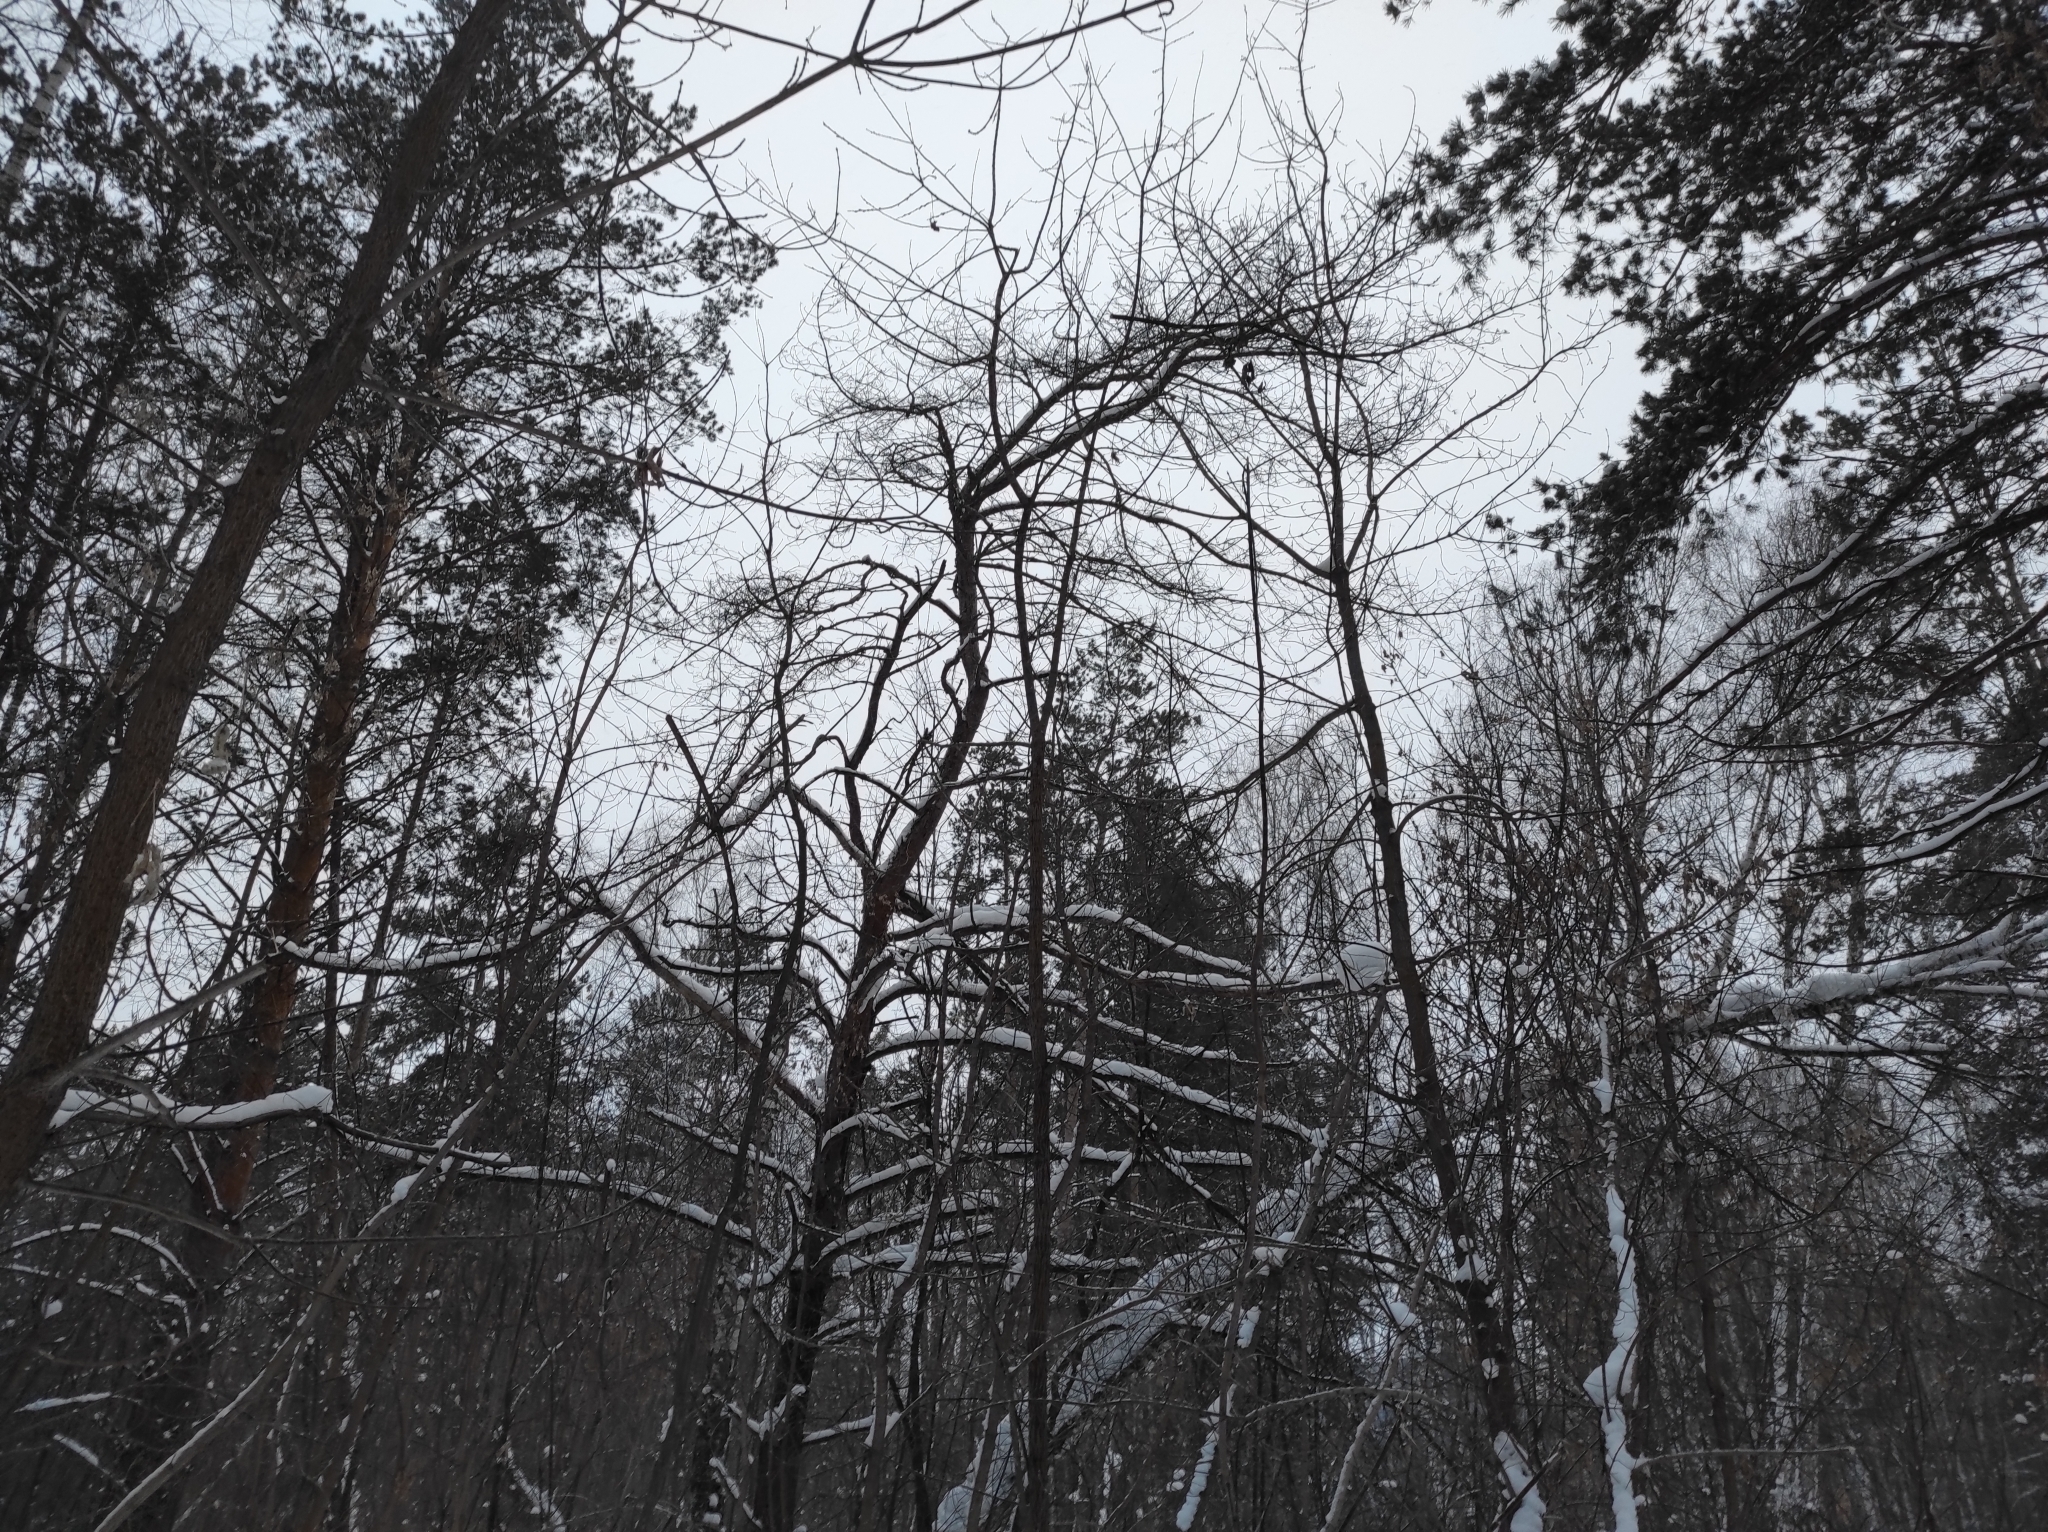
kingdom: Plantae
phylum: Tracheophyta
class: Pinopsida
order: Pinales
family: Pinaceae
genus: Pinus
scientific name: Pinus sylvestris
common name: Scots pine
